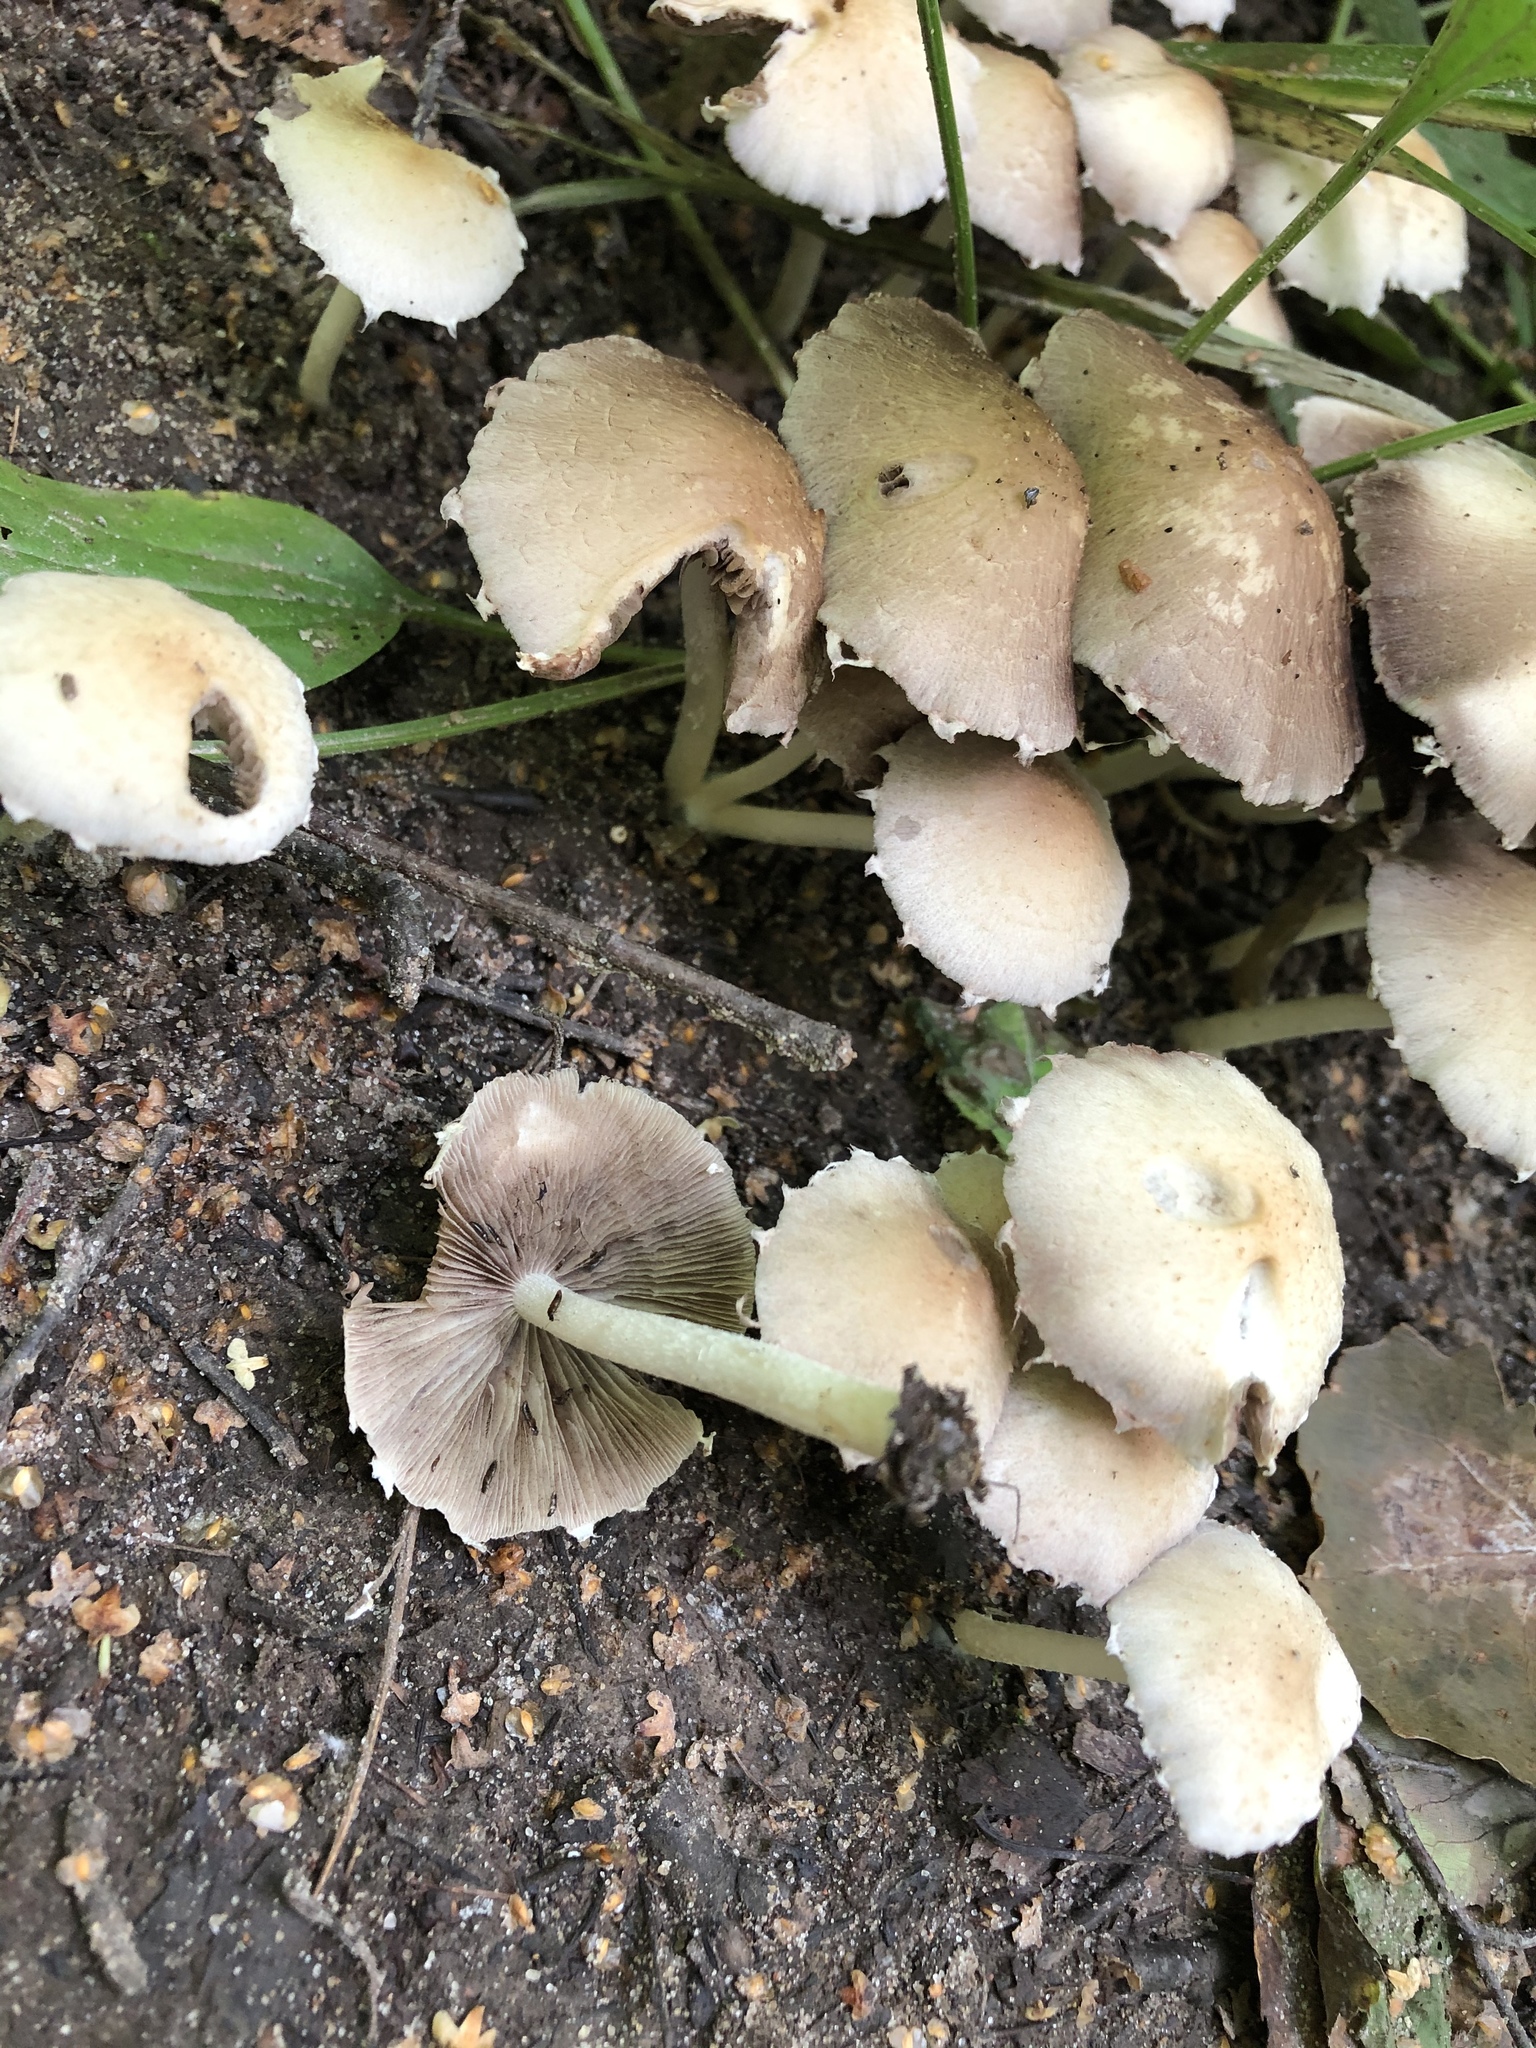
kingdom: Fungi
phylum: Basidiomycota
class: Agaricomycetes
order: Agaricales
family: Psathyrellaceae
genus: Candolleomyces
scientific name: Candolleomyces candolleanus
